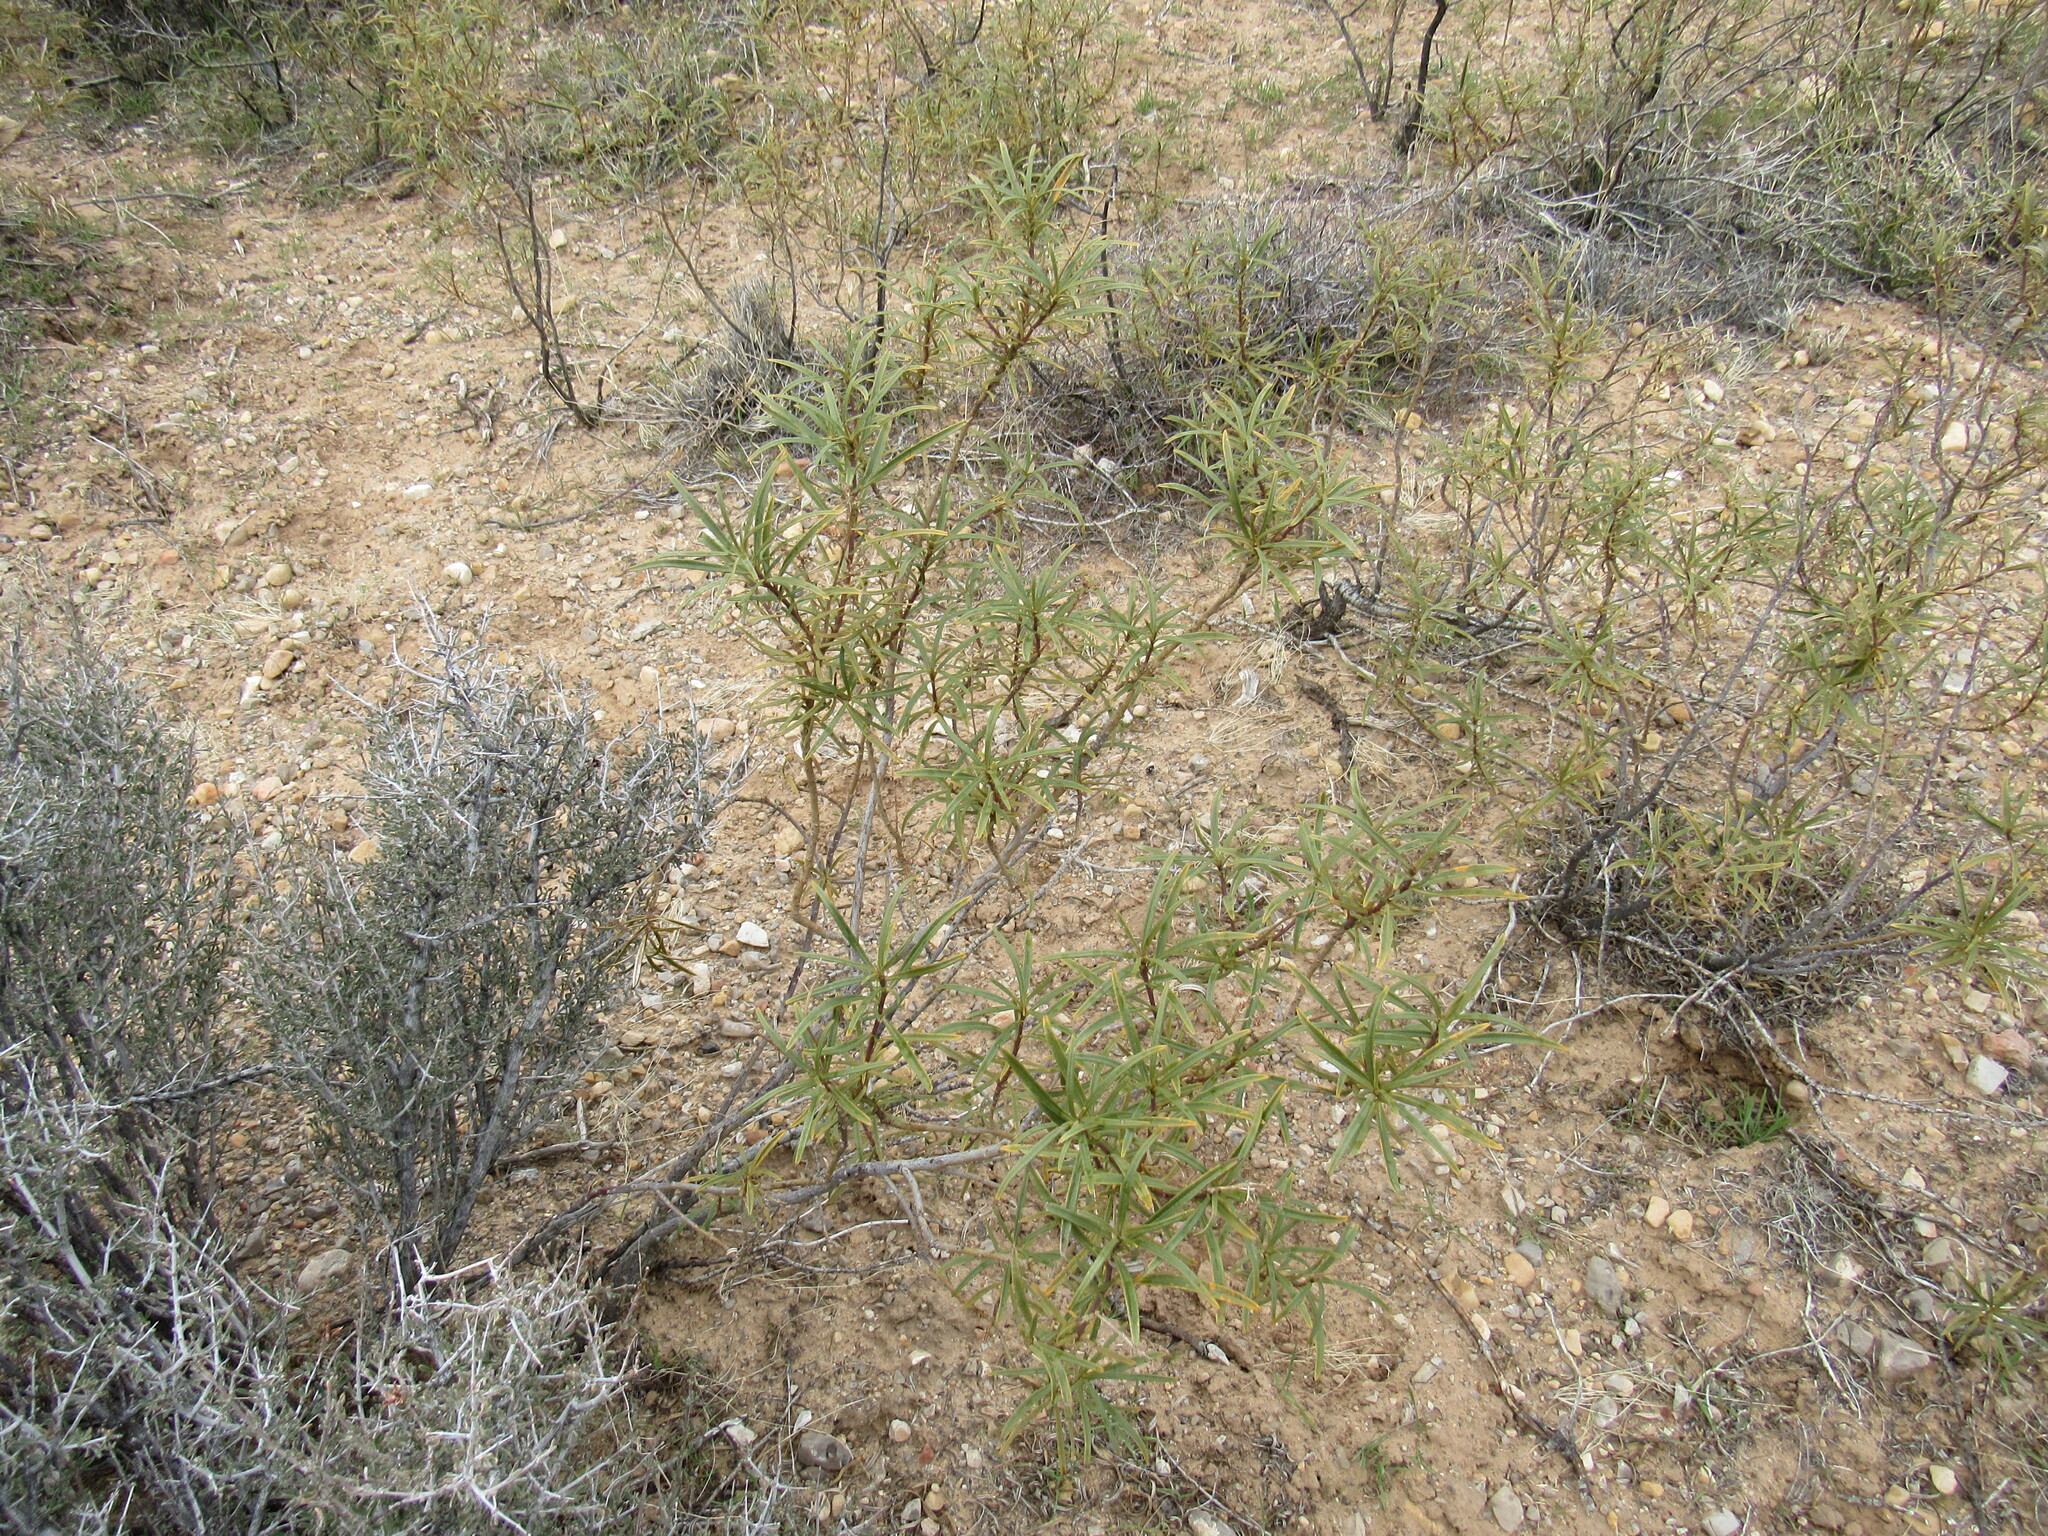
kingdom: Plantae
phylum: Tracheophyta
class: Magnoliopsida
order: Boraginales
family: Namaceae
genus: Eriodictyon
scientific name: Eriodictyon angustifolium
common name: Narrow-leaf yerba santa
